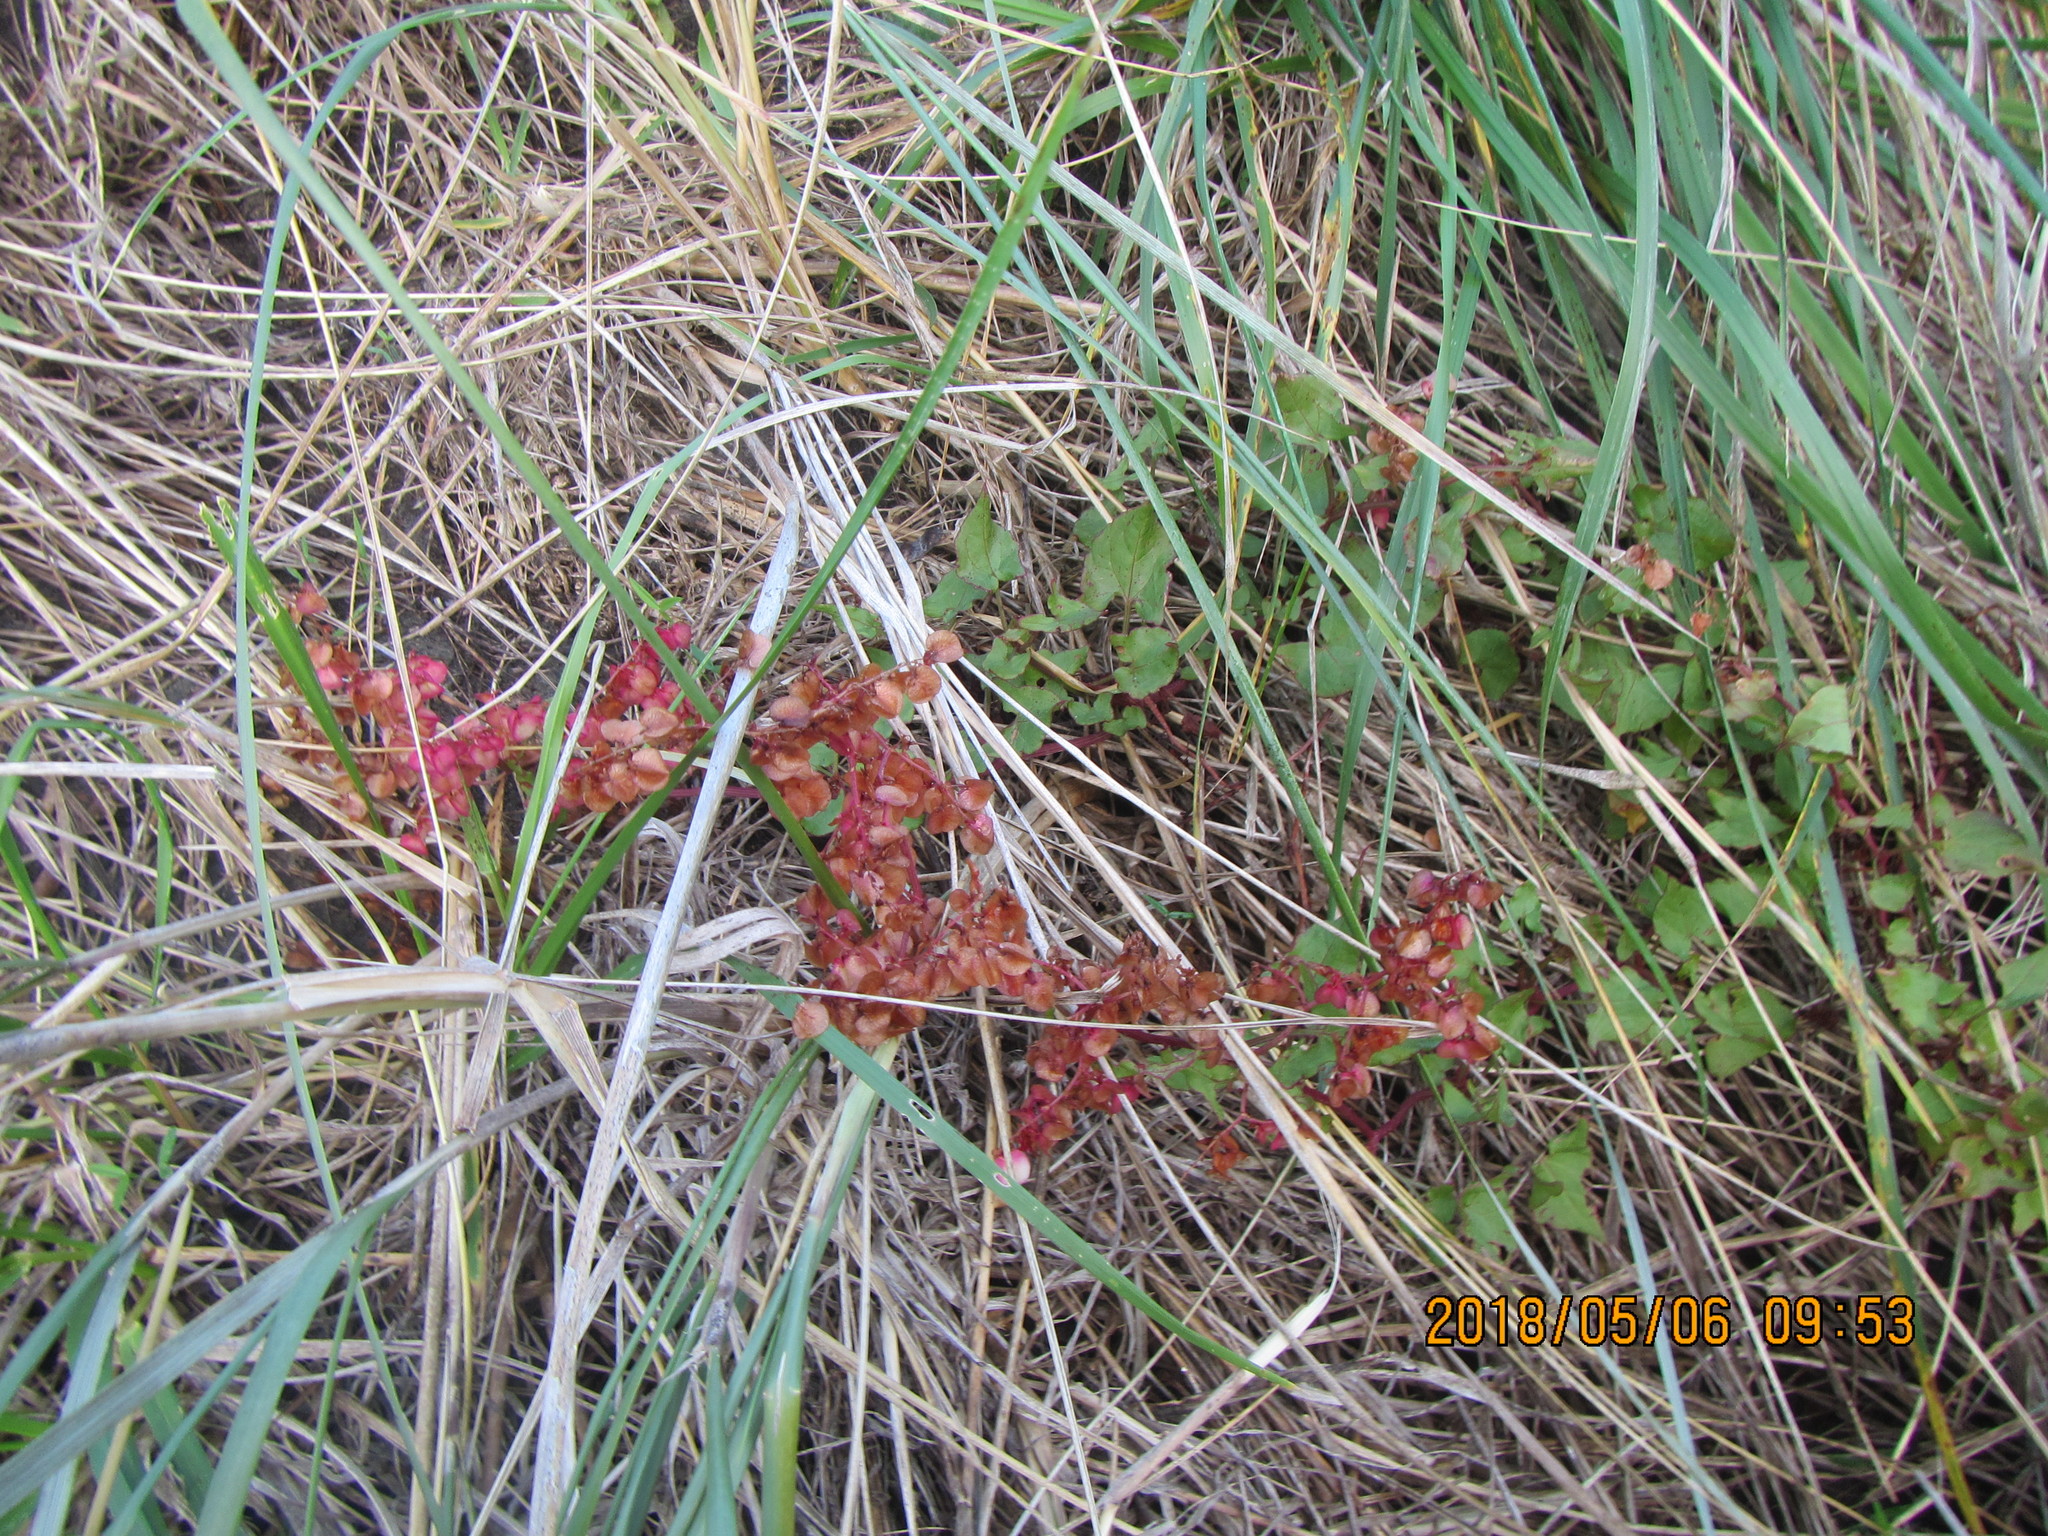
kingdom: Plantae
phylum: Tracheophyta
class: Magnoliopsida
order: Caryophyllales
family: Polygonaceae
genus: Rumex
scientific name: Rumex sagittatus
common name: Climbing dock
